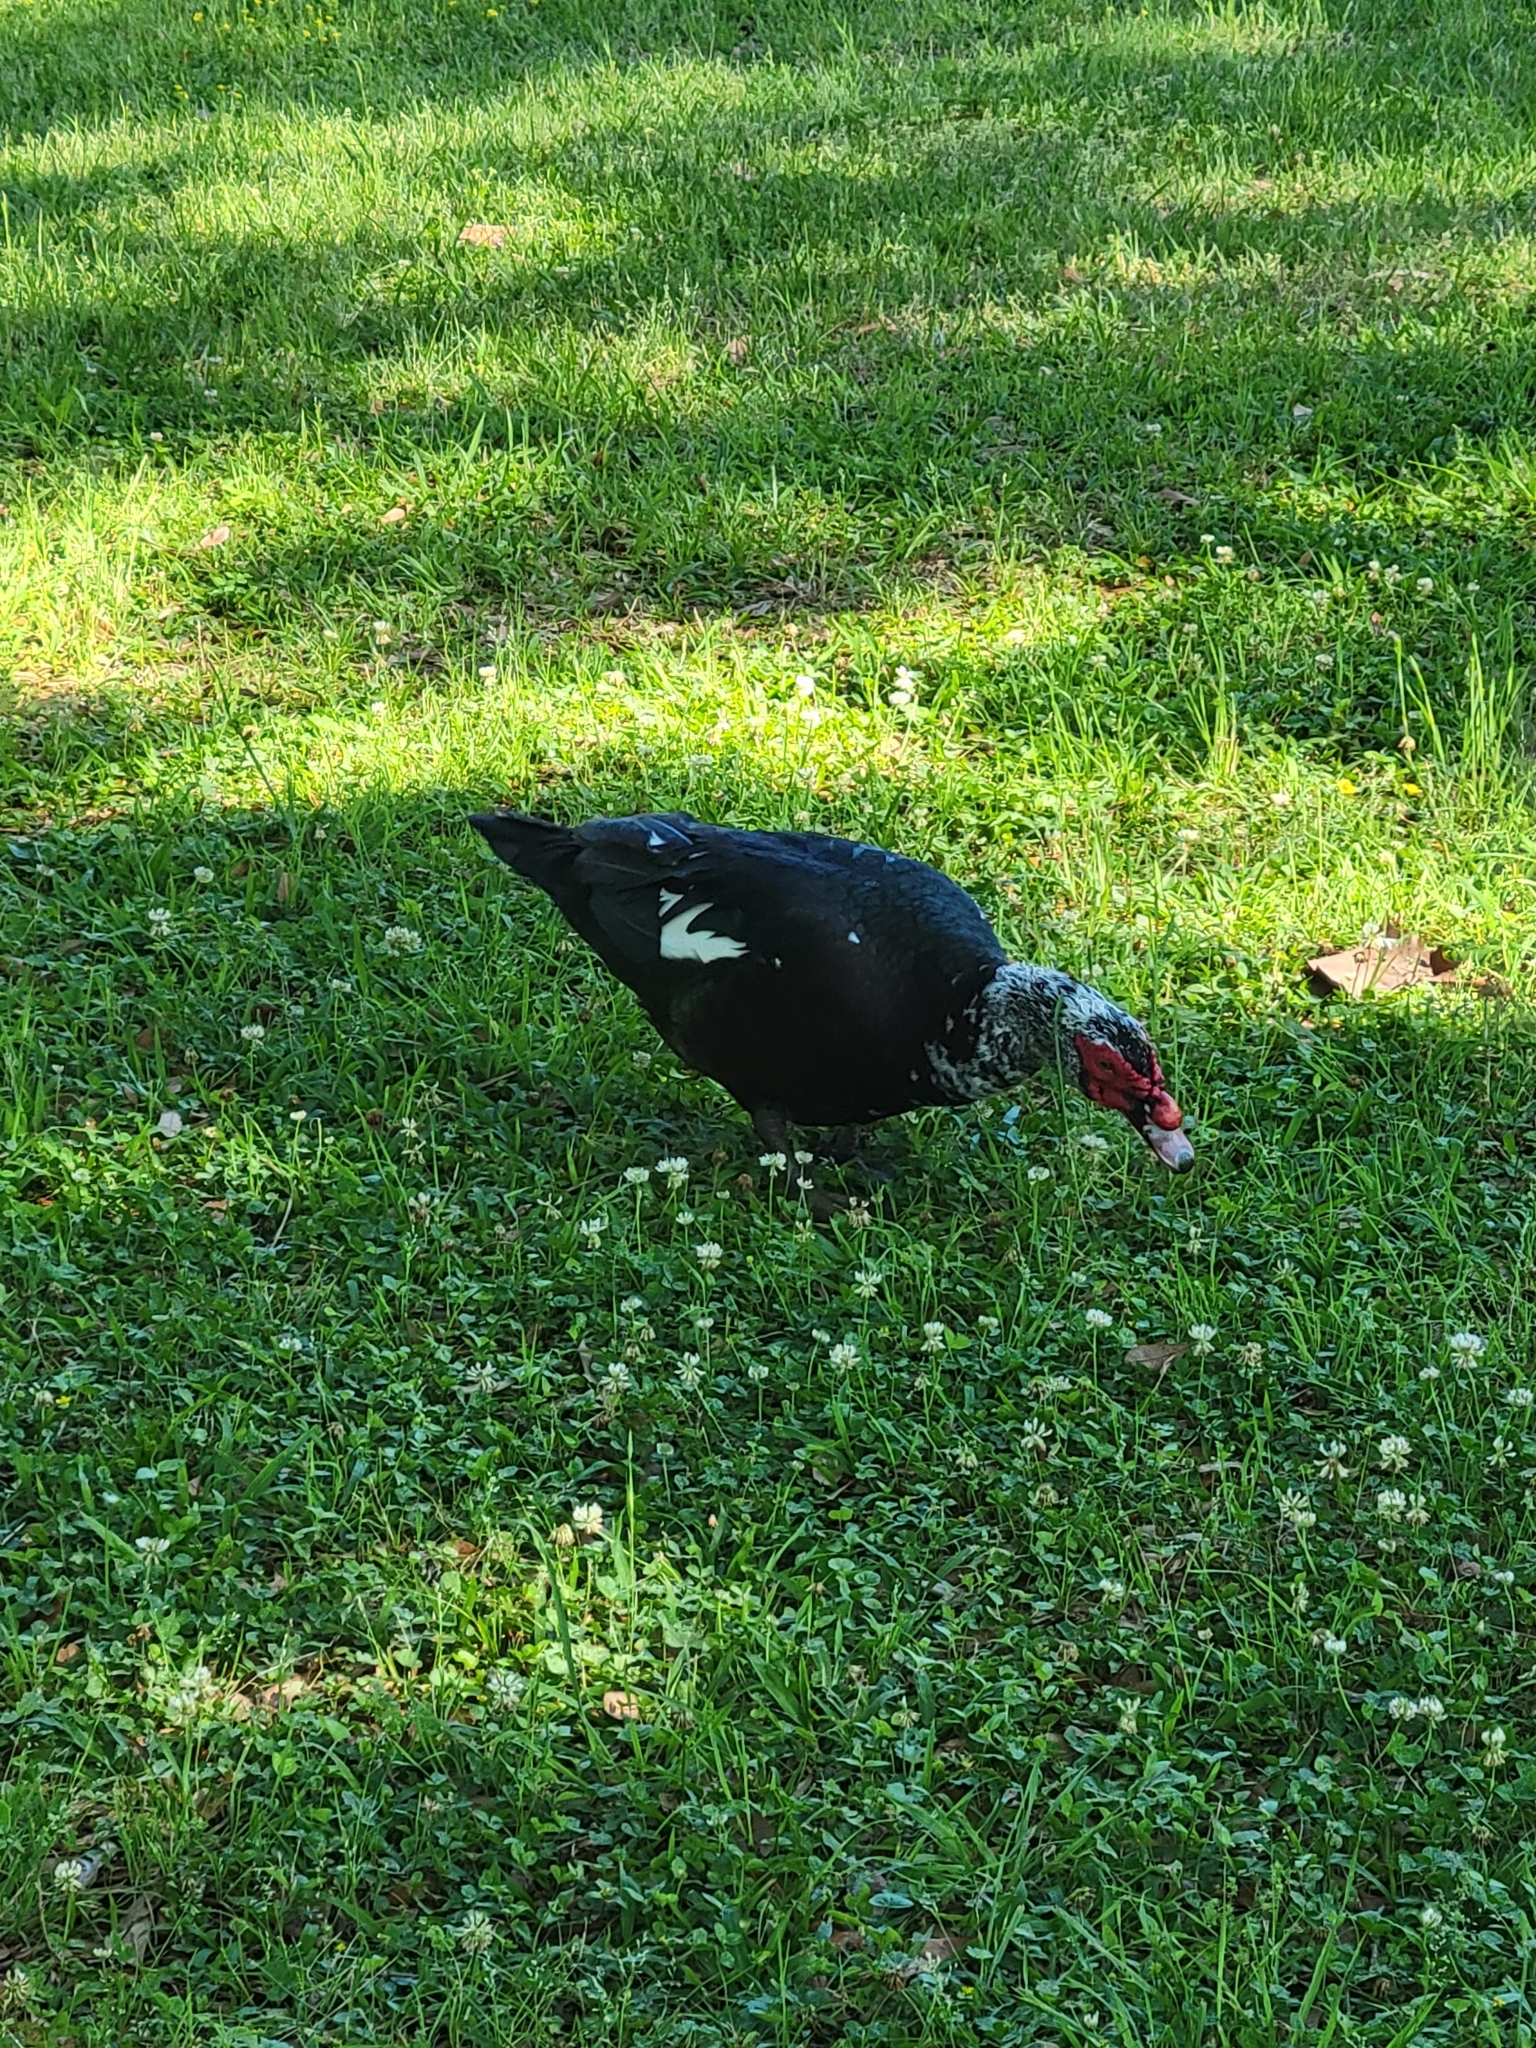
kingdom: Animalia
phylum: Chordata
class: Aves
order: Anseriformes
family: Anatidae
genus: Cairina
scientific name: Cairina moschata
